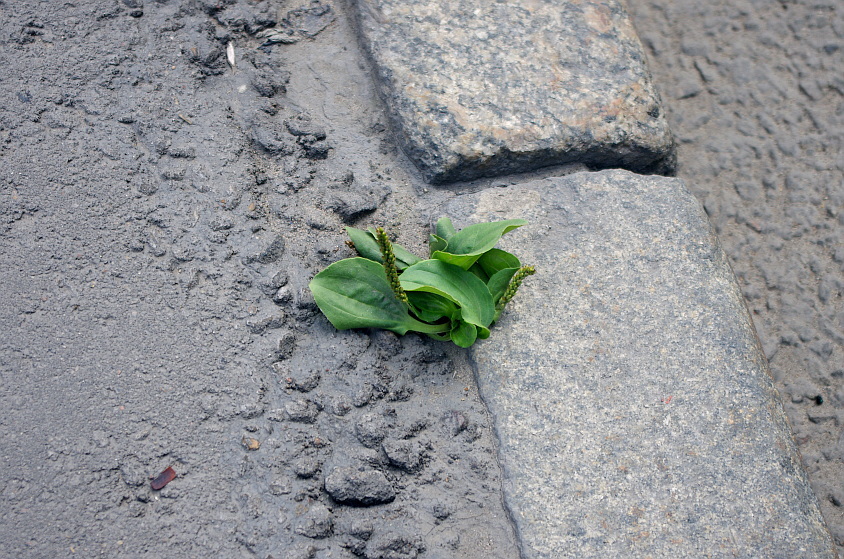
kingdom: Plantae
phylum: Tracheophyta
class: Magnoliopsida
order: Lamiales
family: Plantaginaceae
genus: Plantago
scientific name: Plantago major
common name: Common plantain
